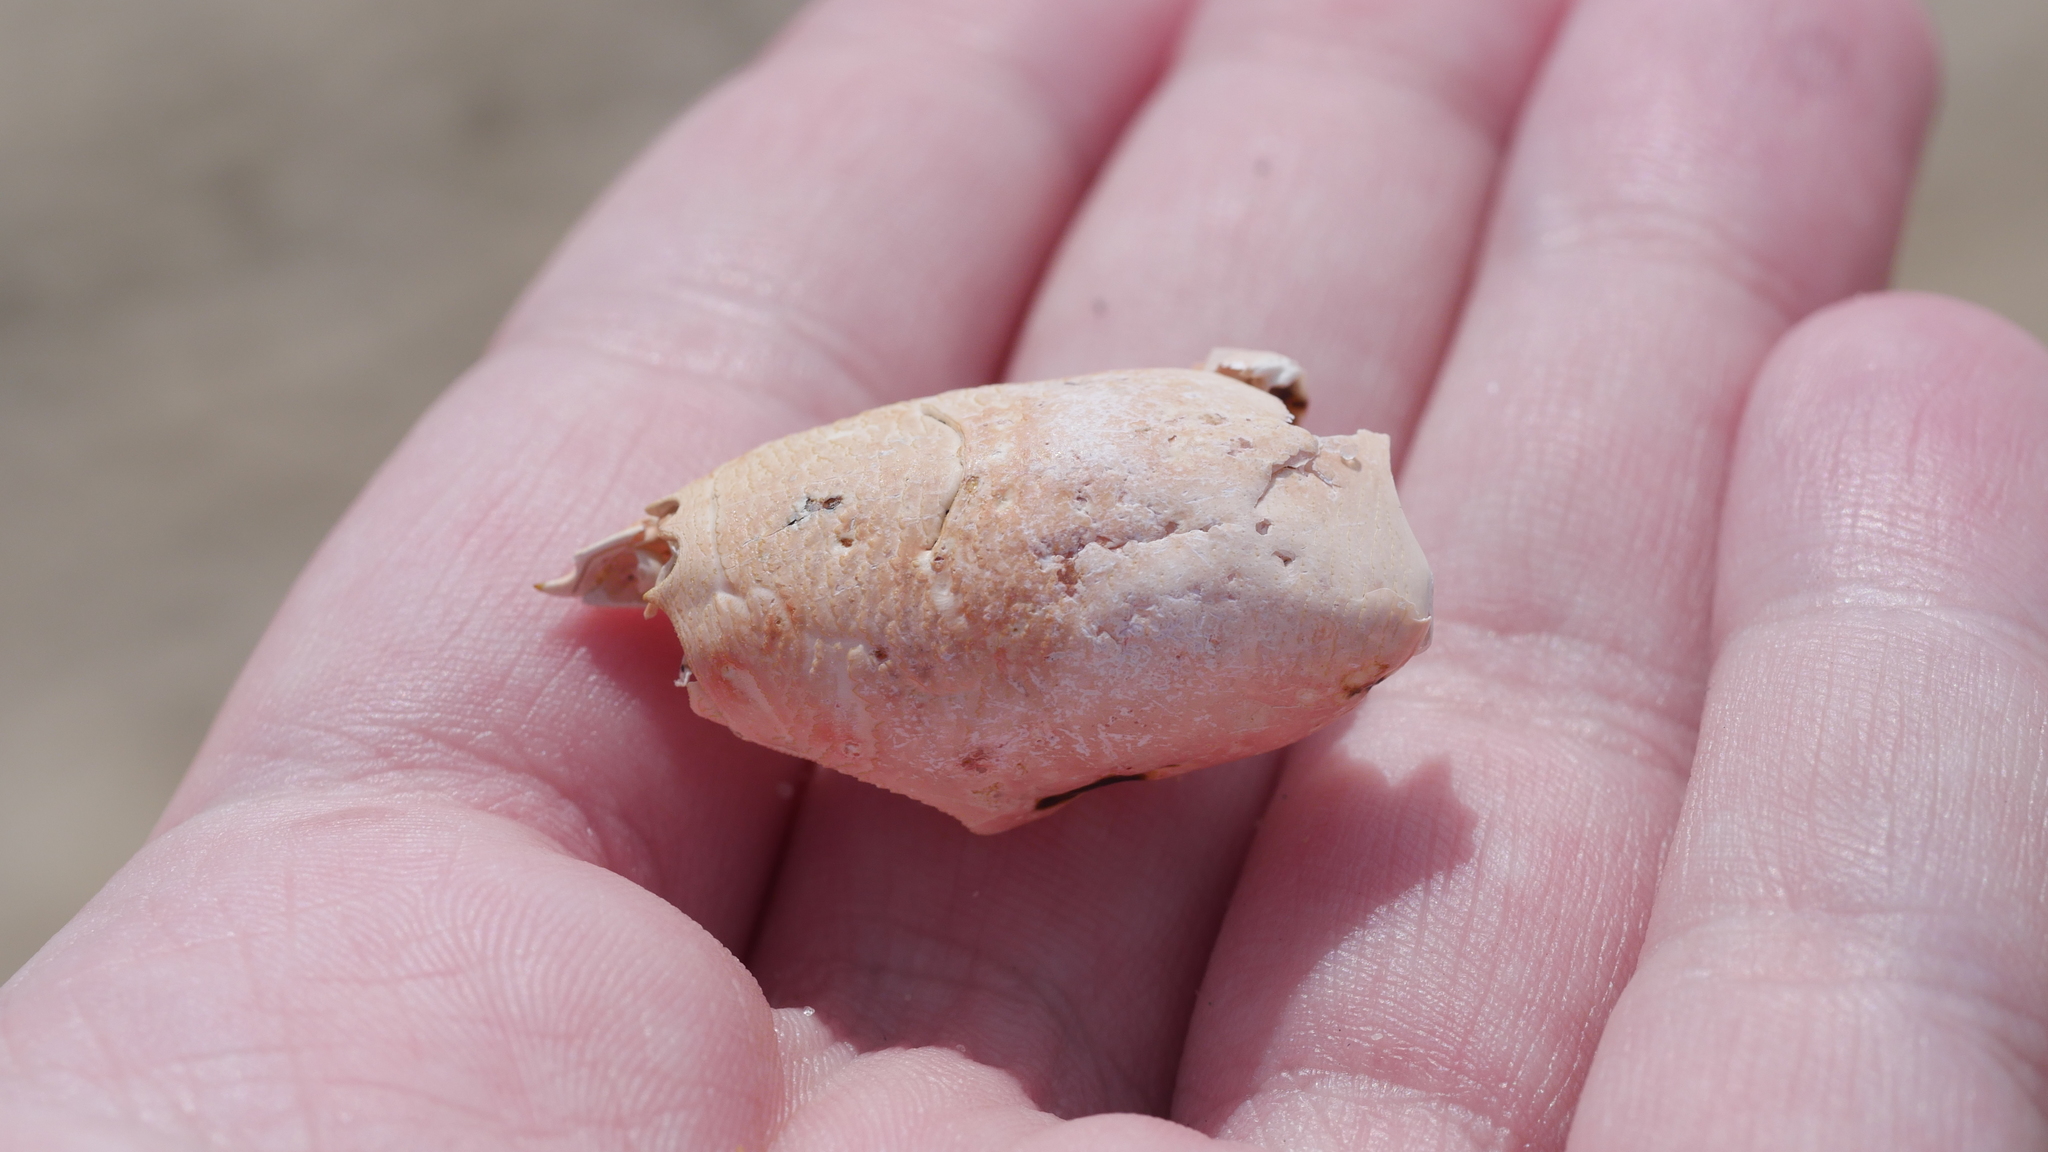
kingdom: Animalia
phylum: Arthropoda
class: Malacostraca
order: Decapoda
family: Hippidae
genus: Emerita
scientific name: Emerita talpoida
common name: Atlantic sand crab
